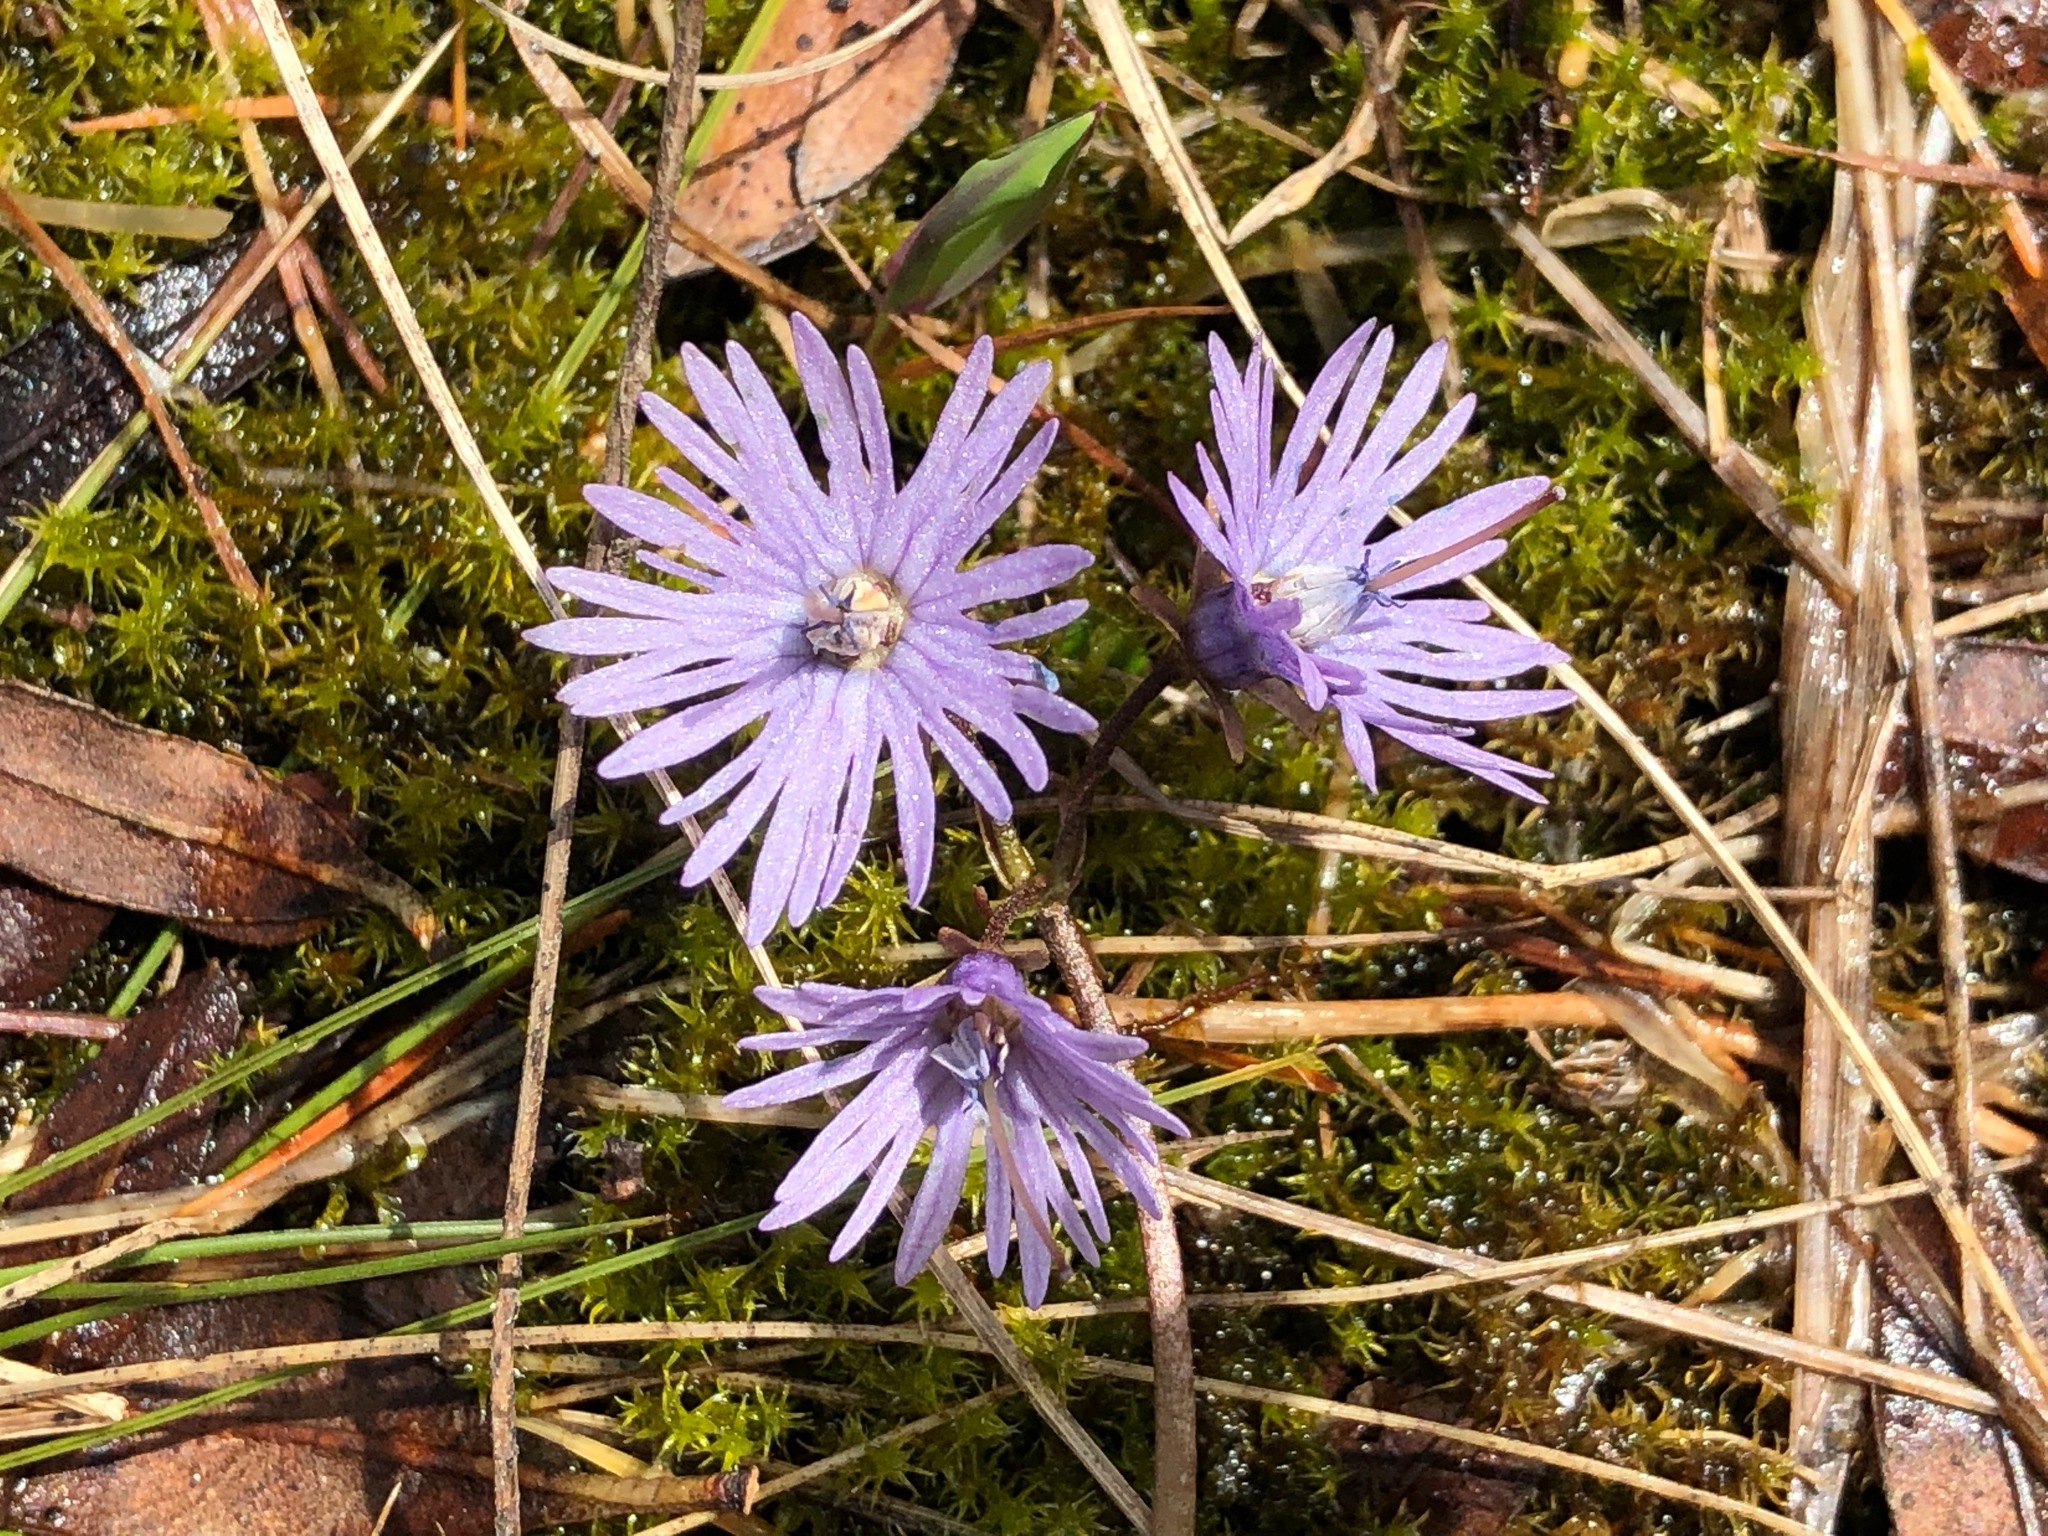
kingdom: Plantae
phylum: Tracheophyta
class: Magnoliopsida
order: Ericales
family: Primulaceae
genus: Soldanella
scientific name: Soldanella alpina
